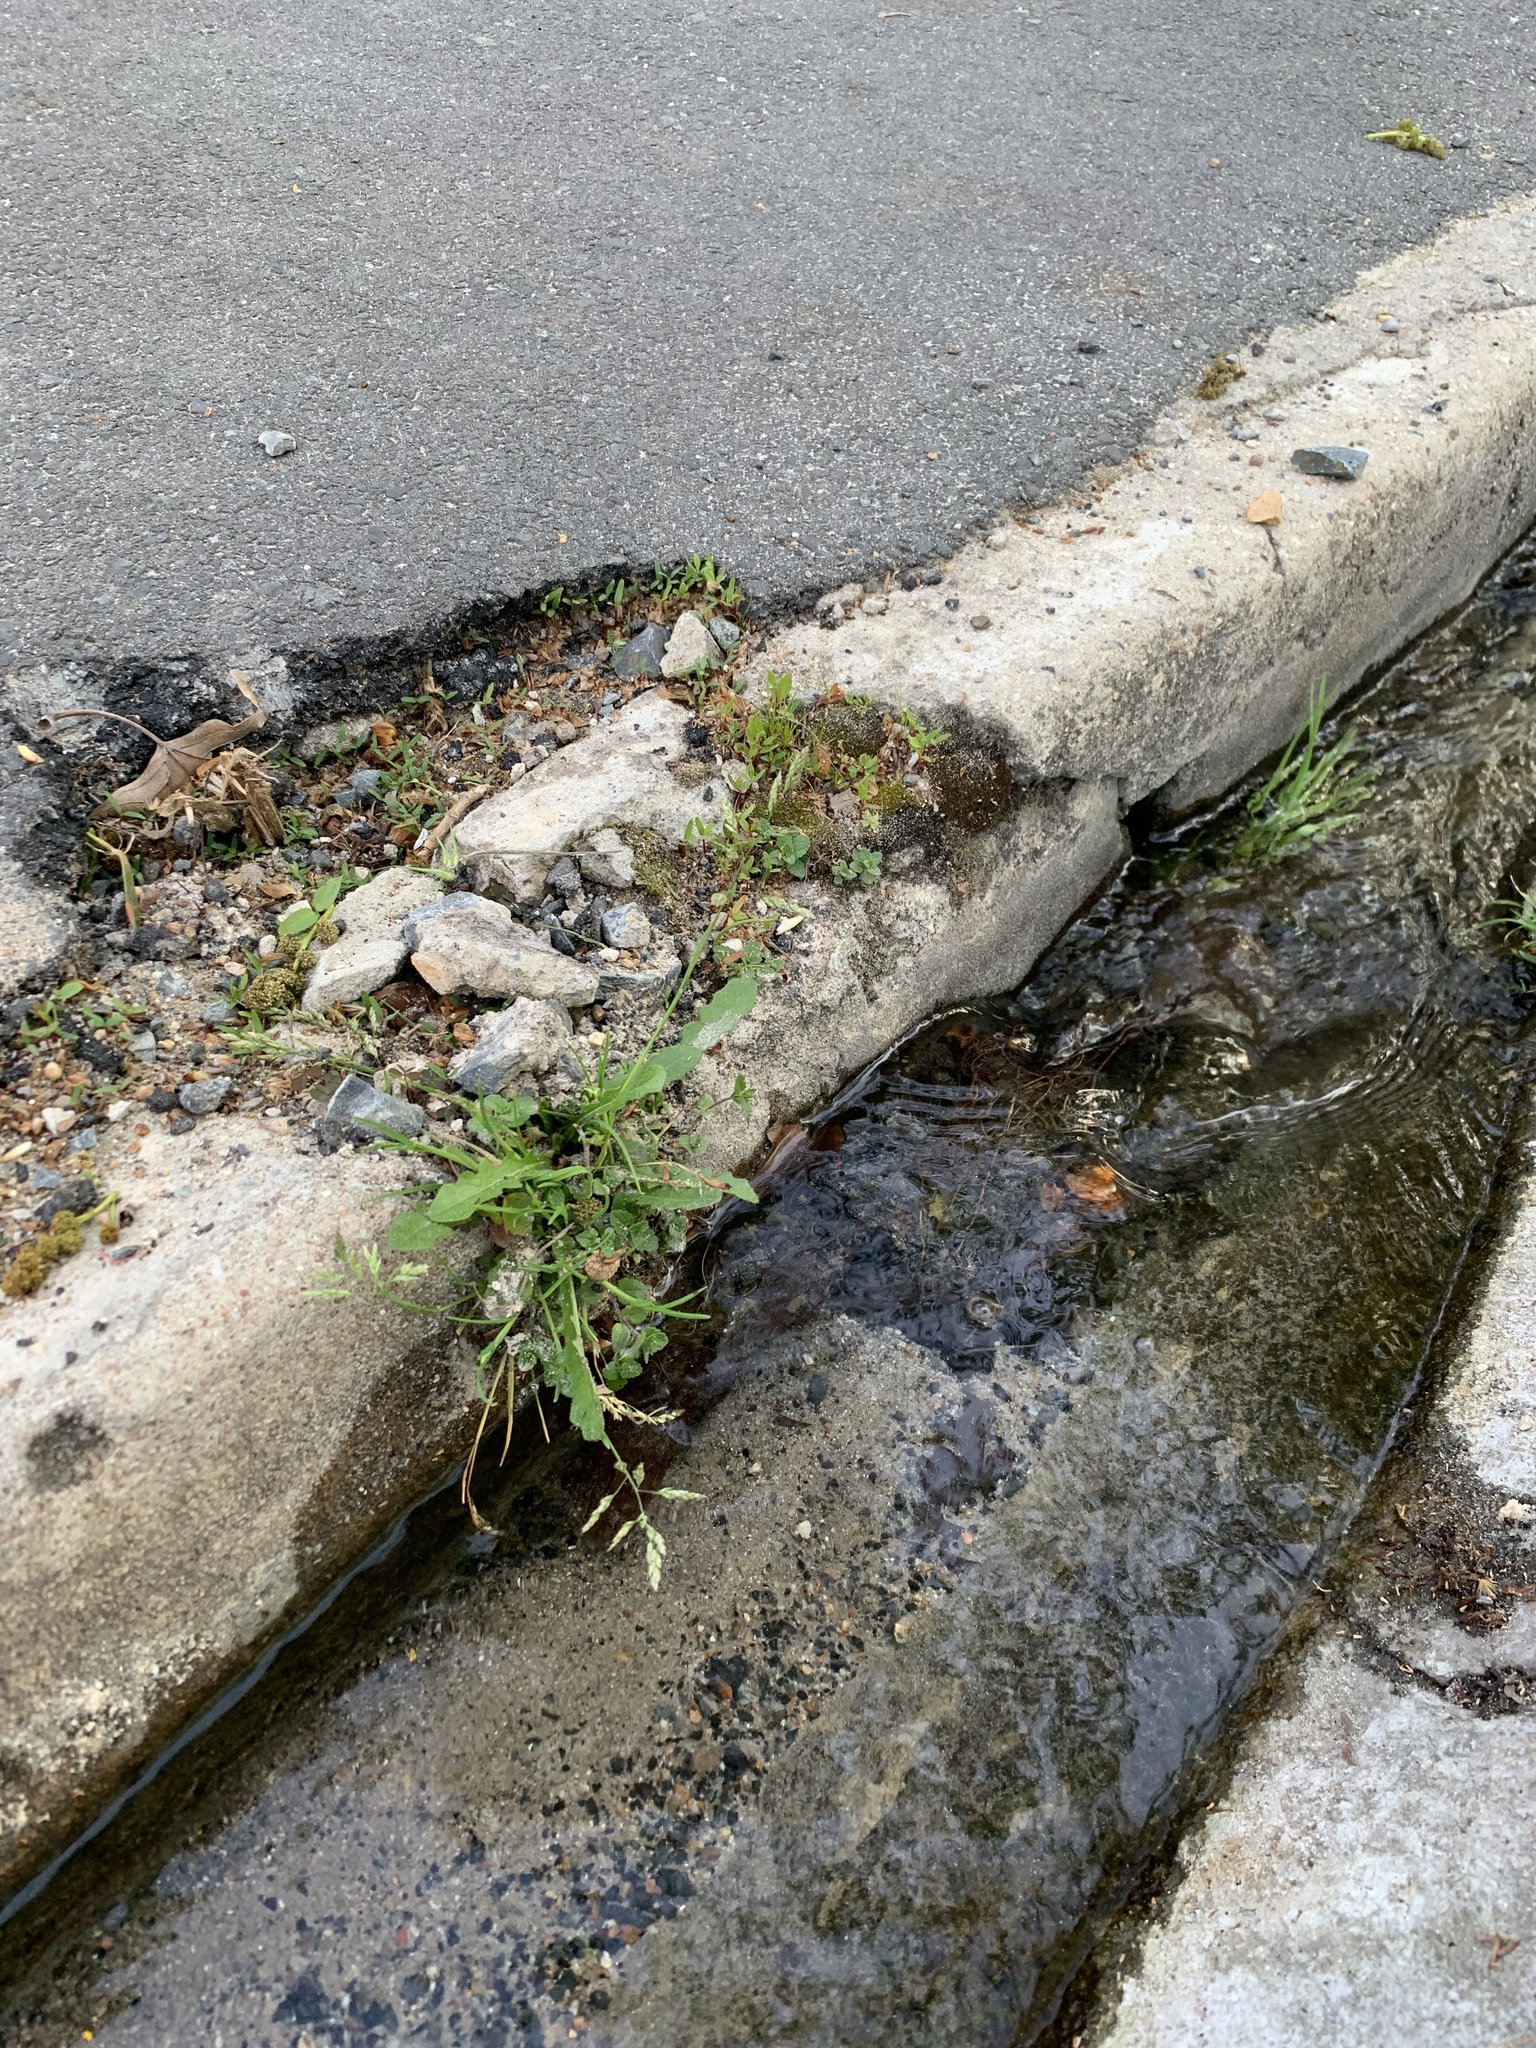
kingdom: Plantae
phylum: Tracheophyta
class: Liliopsida
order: Poales
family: Poaceae
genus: Poa
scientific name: Poa annua
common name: Annual bluegrass
